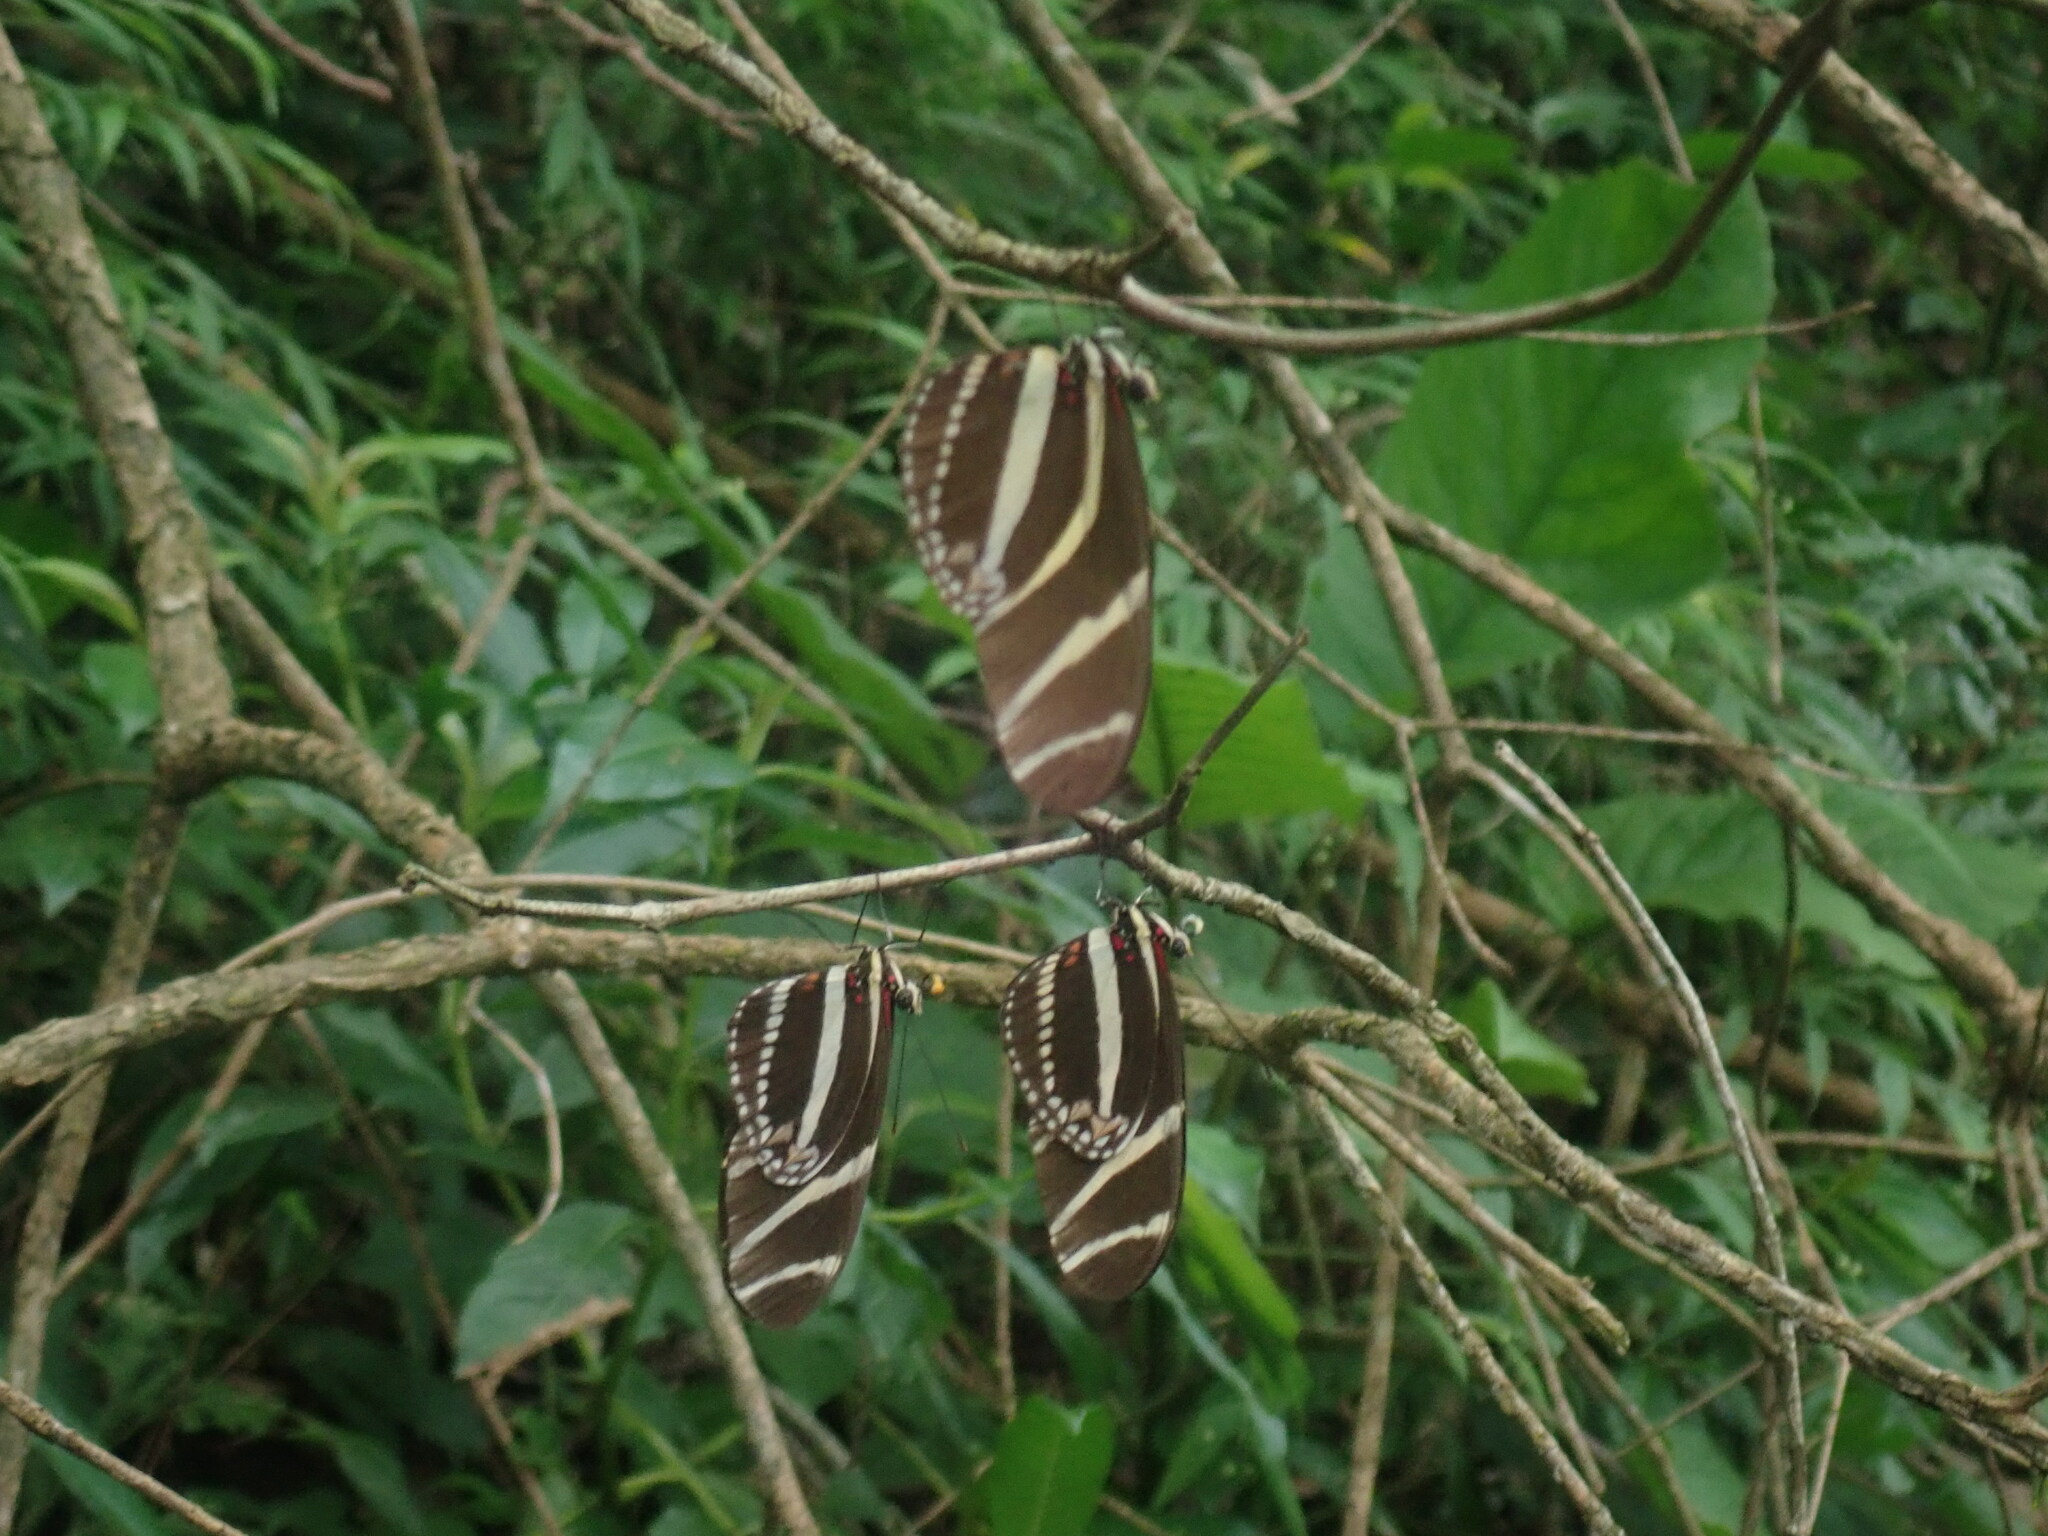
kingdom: Animalia
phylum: Arthropoda
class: Insecta
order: Lepidoptera
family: Nymphalidae
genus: Heliconius
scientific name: Heliconius charithonia
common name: Zebra long wing
